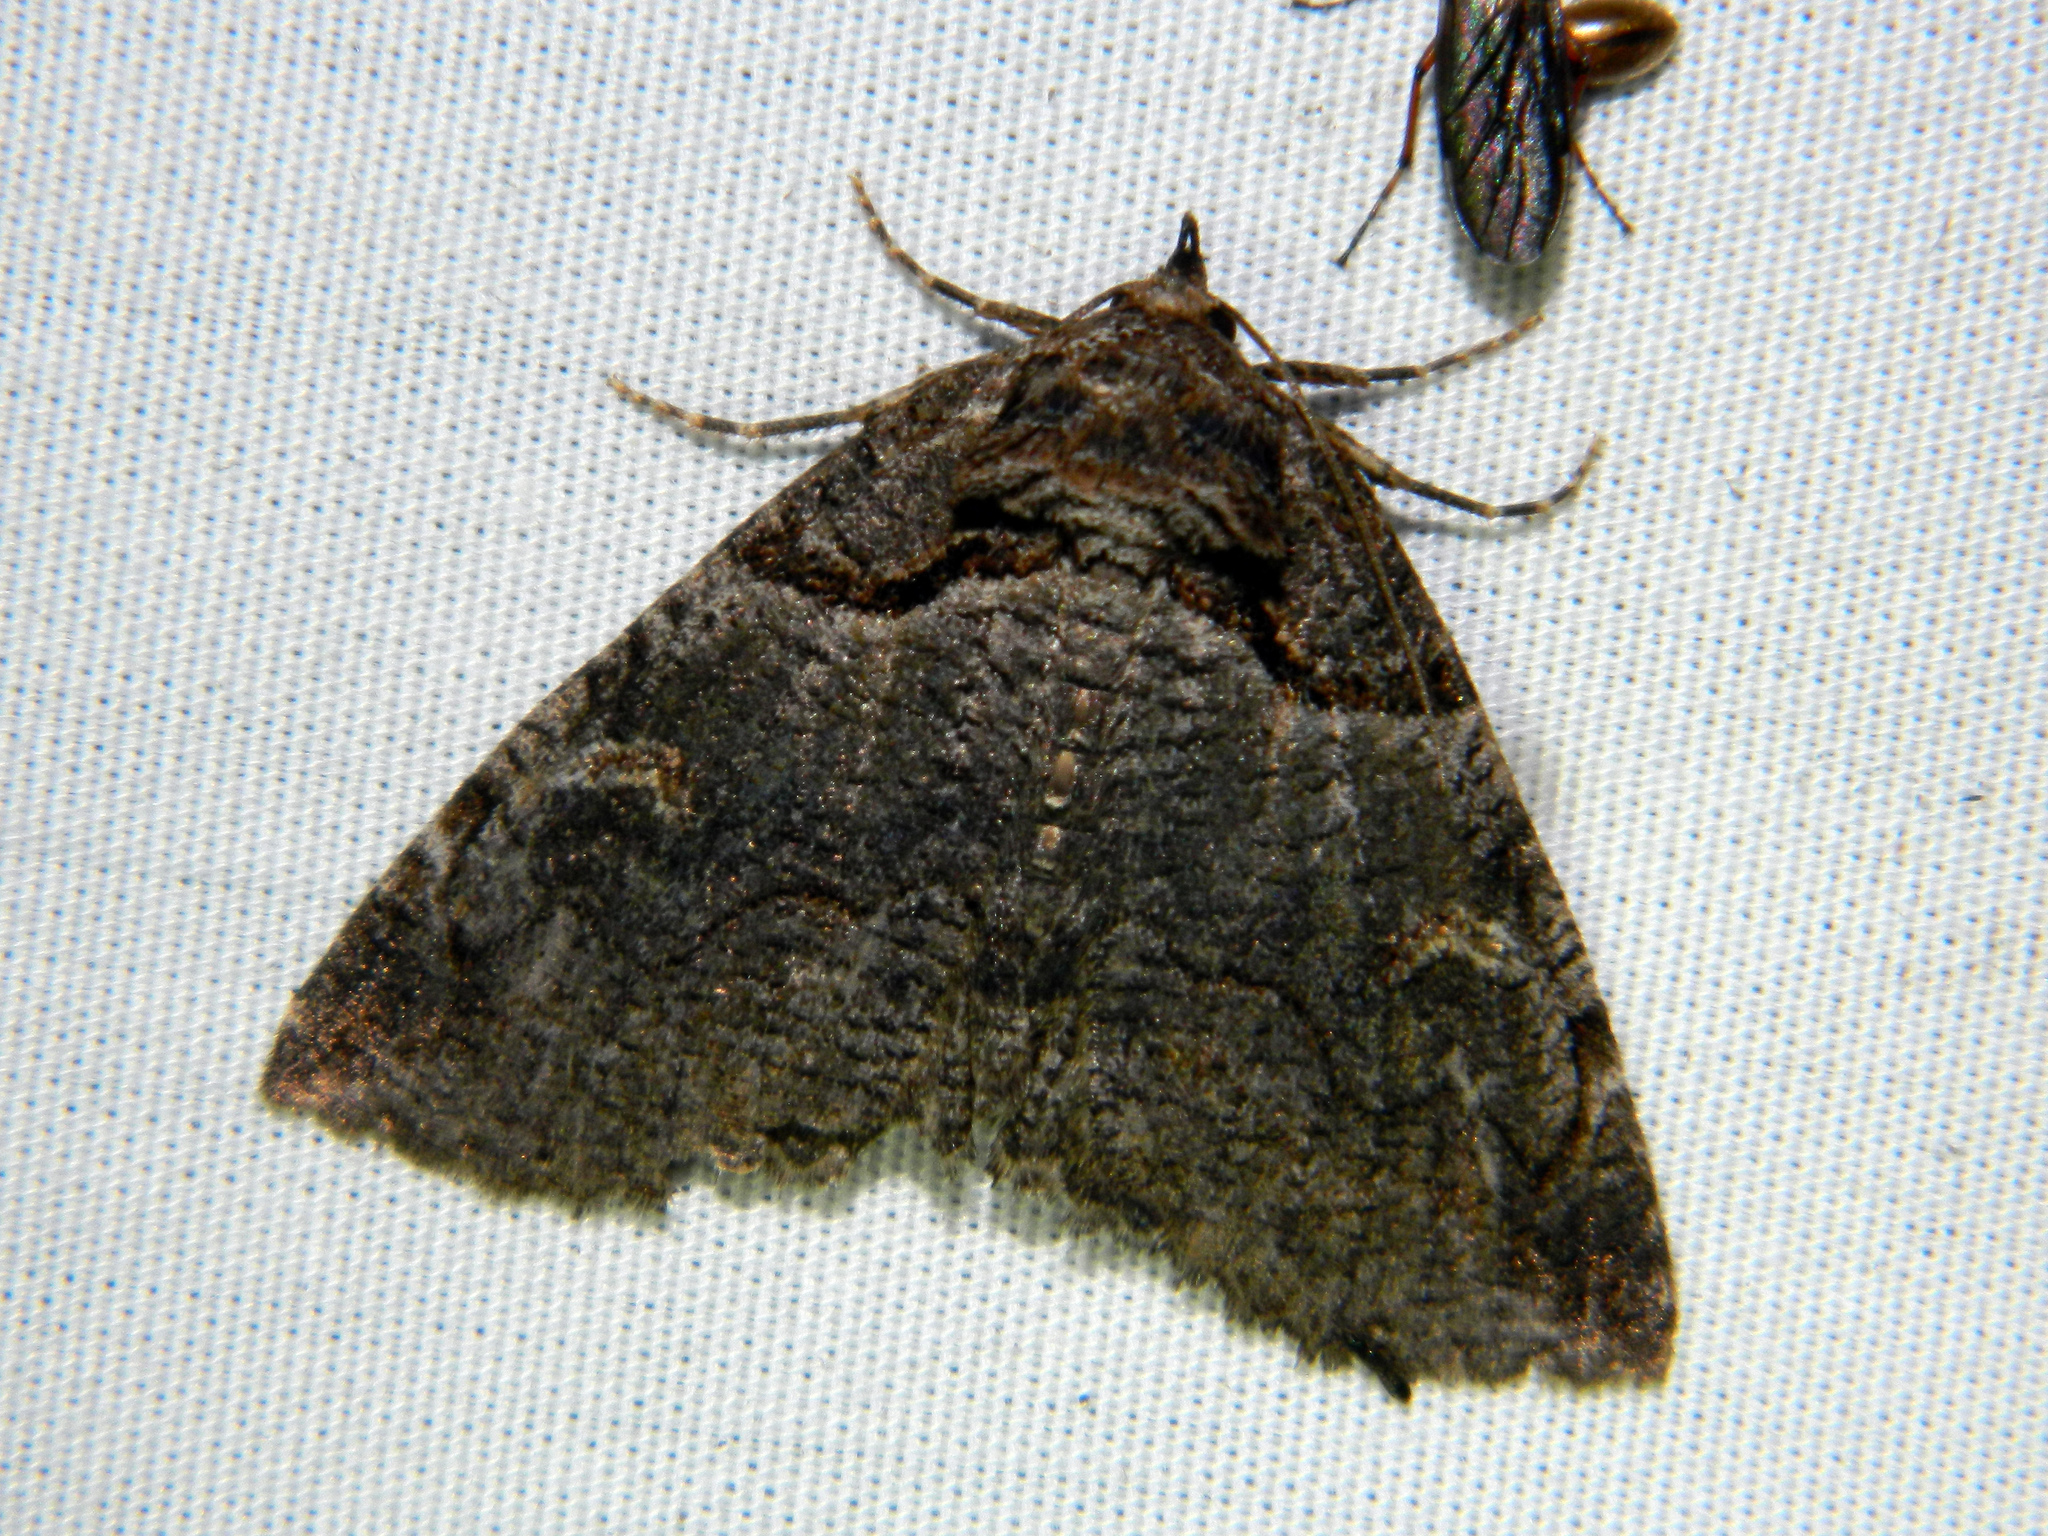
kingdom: Animalia
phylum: Arthropoda
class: Insecta
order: Lepidoptera
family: Erebidae
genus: Zale
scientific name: Zale intenta
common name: Intent zale moth
